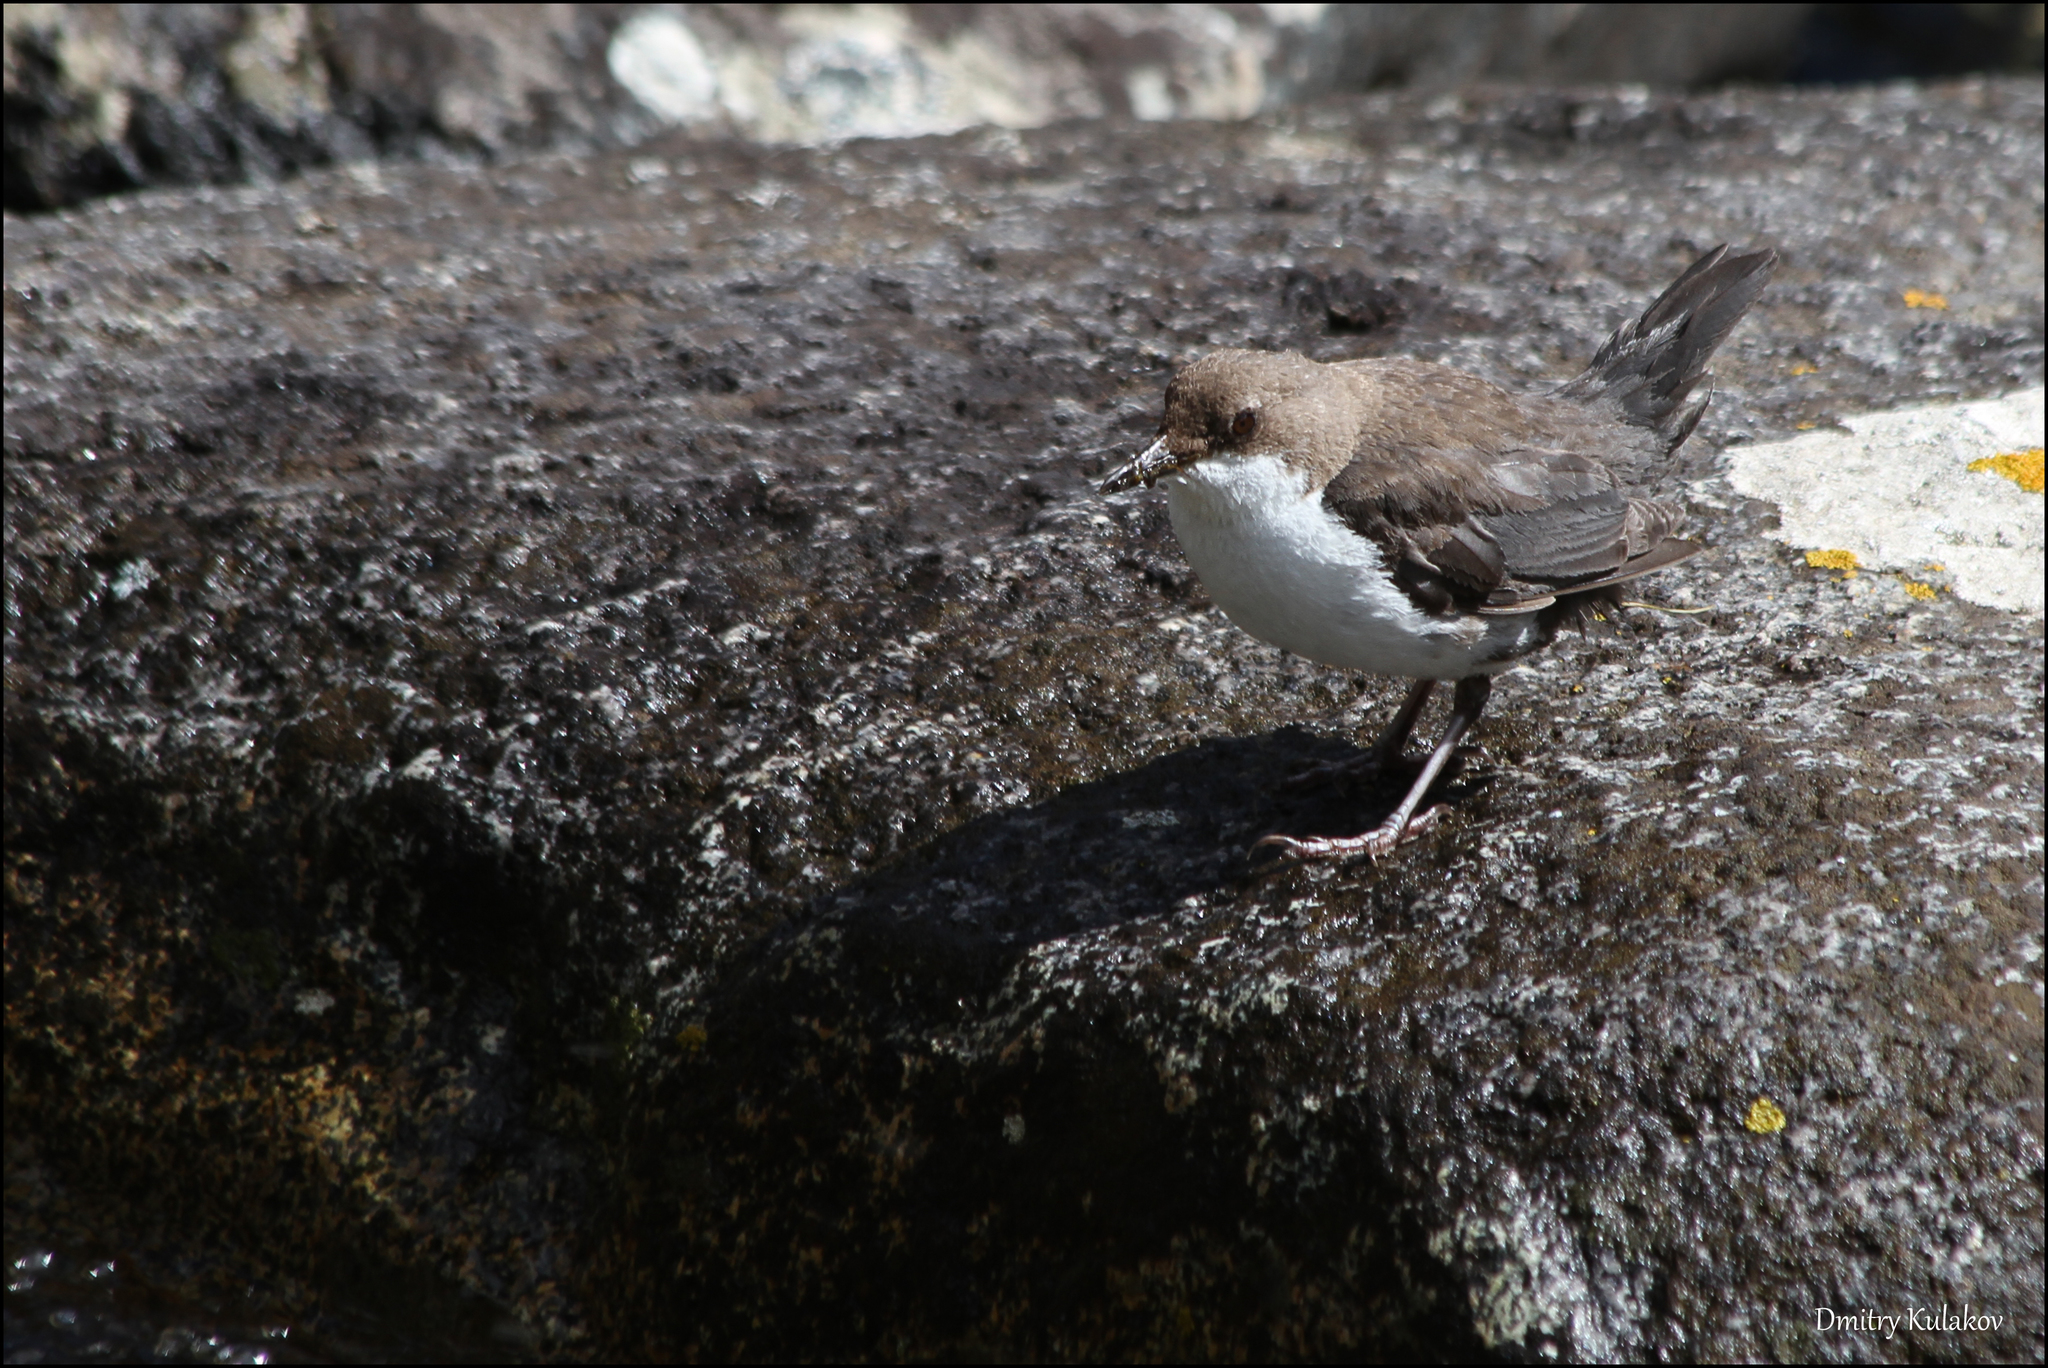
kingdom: Animalia
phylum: Chordata
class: Aves
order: Passeriformes
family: Cinclidae
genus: Cinclus
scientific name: Cinclus cinclus
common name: White-throated dipper
